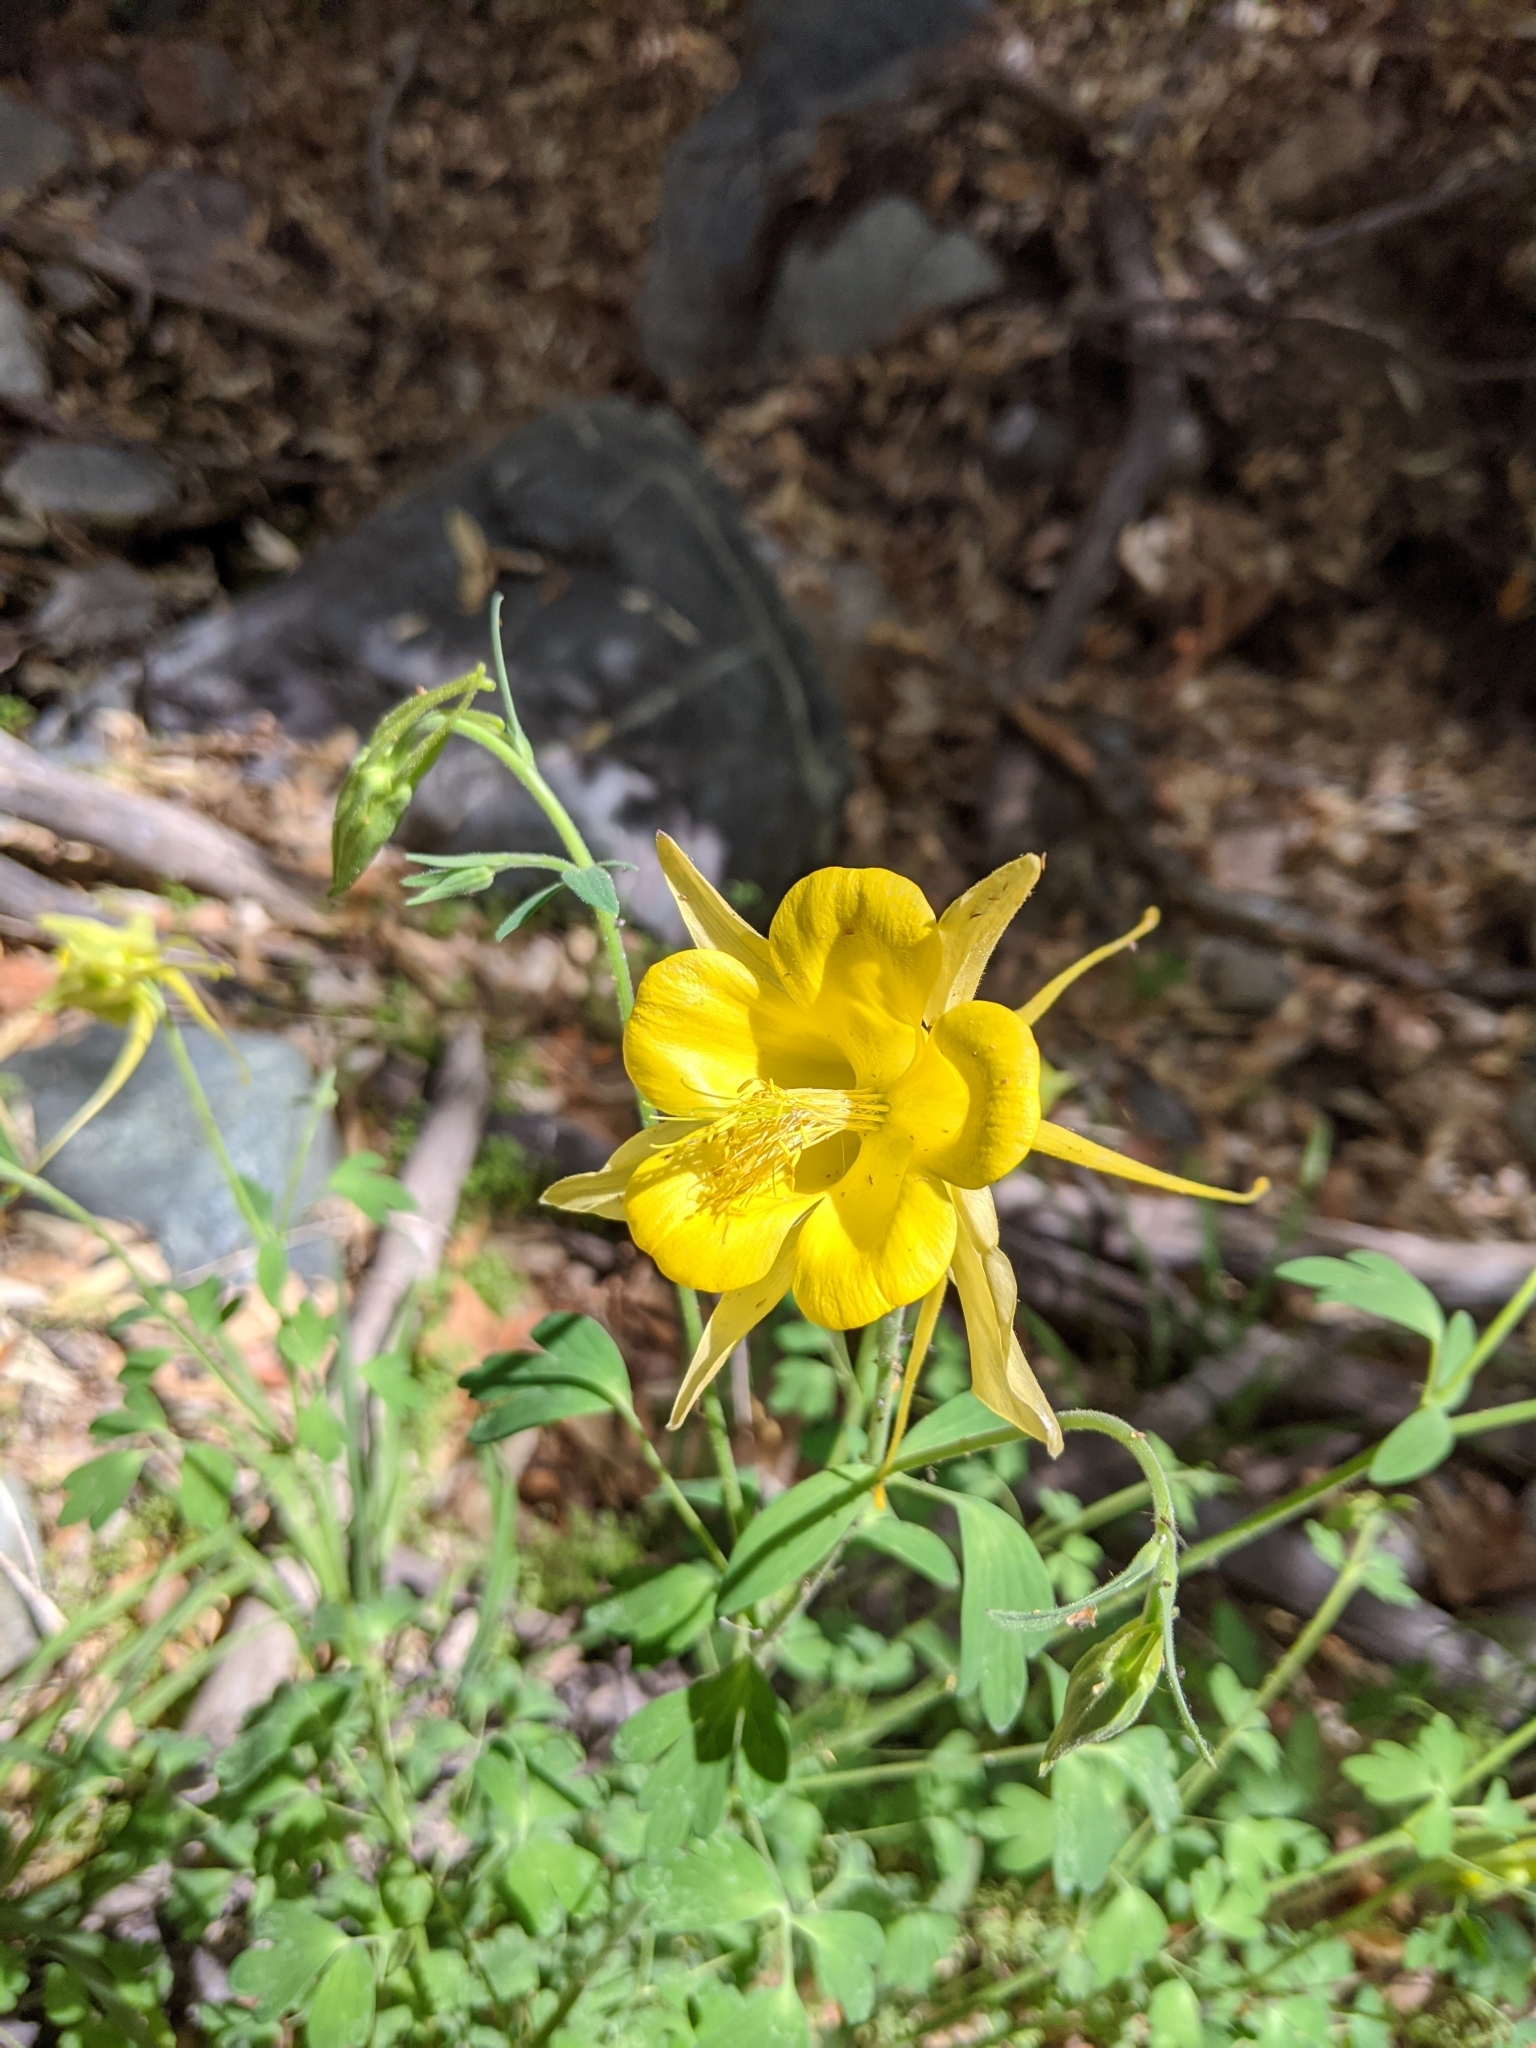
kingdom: Plantae
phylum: Tracheophyta
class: Magnoliopsida
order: Ranunculales
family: Ranunculaceae
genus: Aquilegia
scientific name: Aquilegia chrysantha
